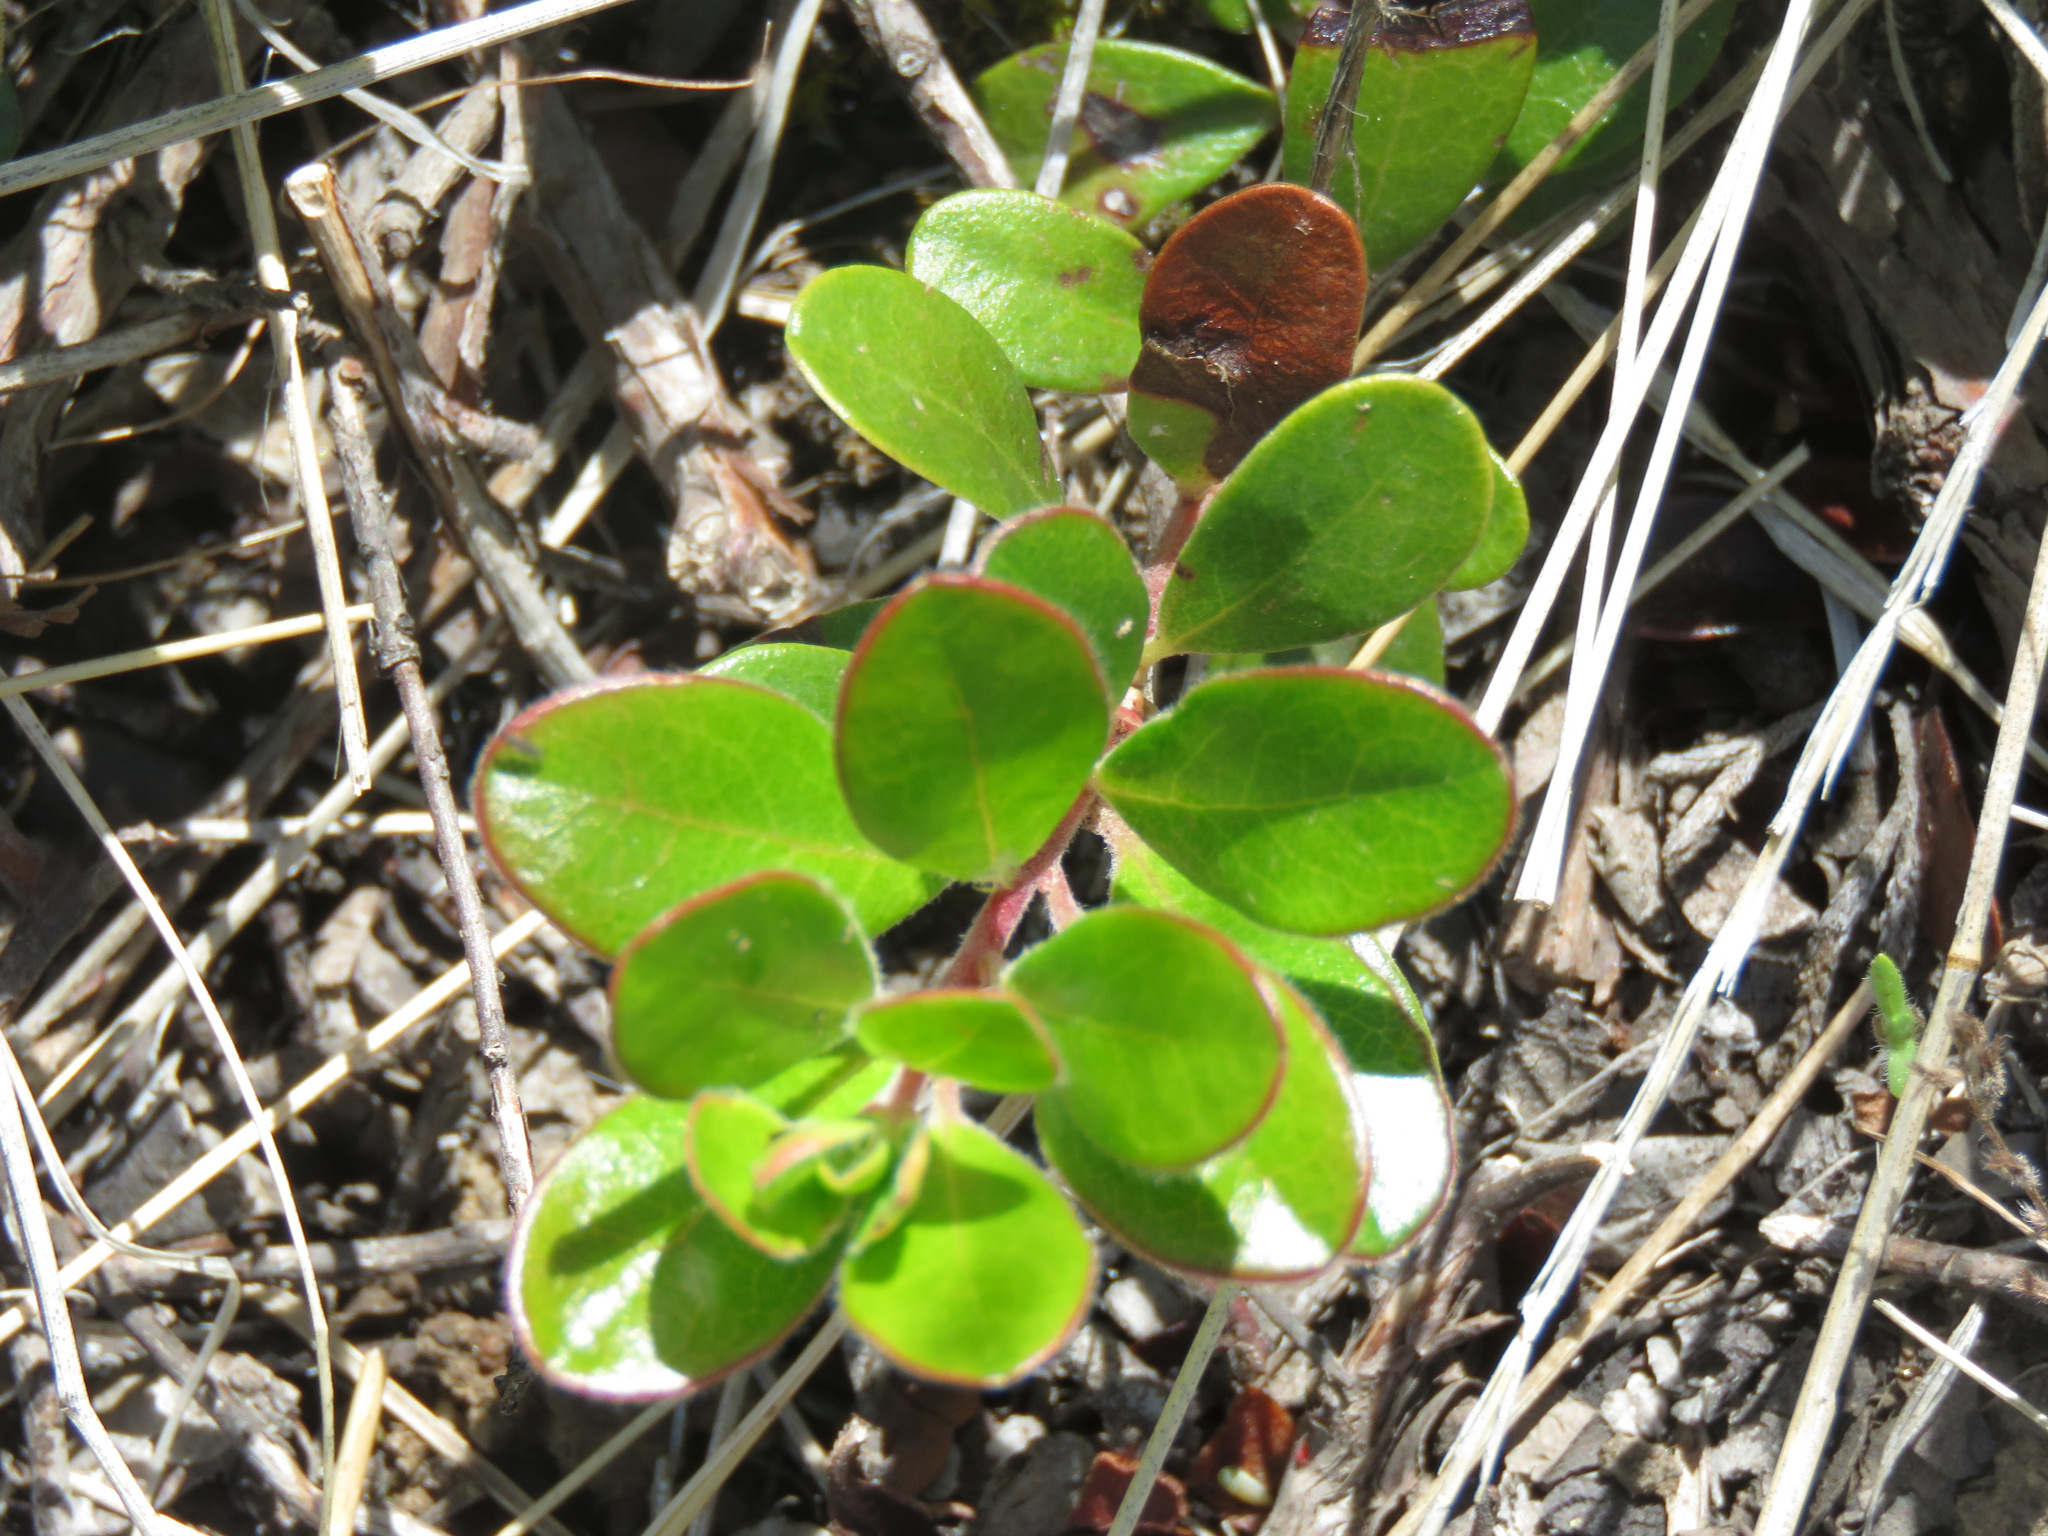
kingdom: Plantae
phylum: Tracheophyta
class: Magnoliopsida
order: Ericales
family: Ericaceae
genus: Arctostaphylos
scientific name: Arctostaphylos uva-ursi
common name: Bearberry
